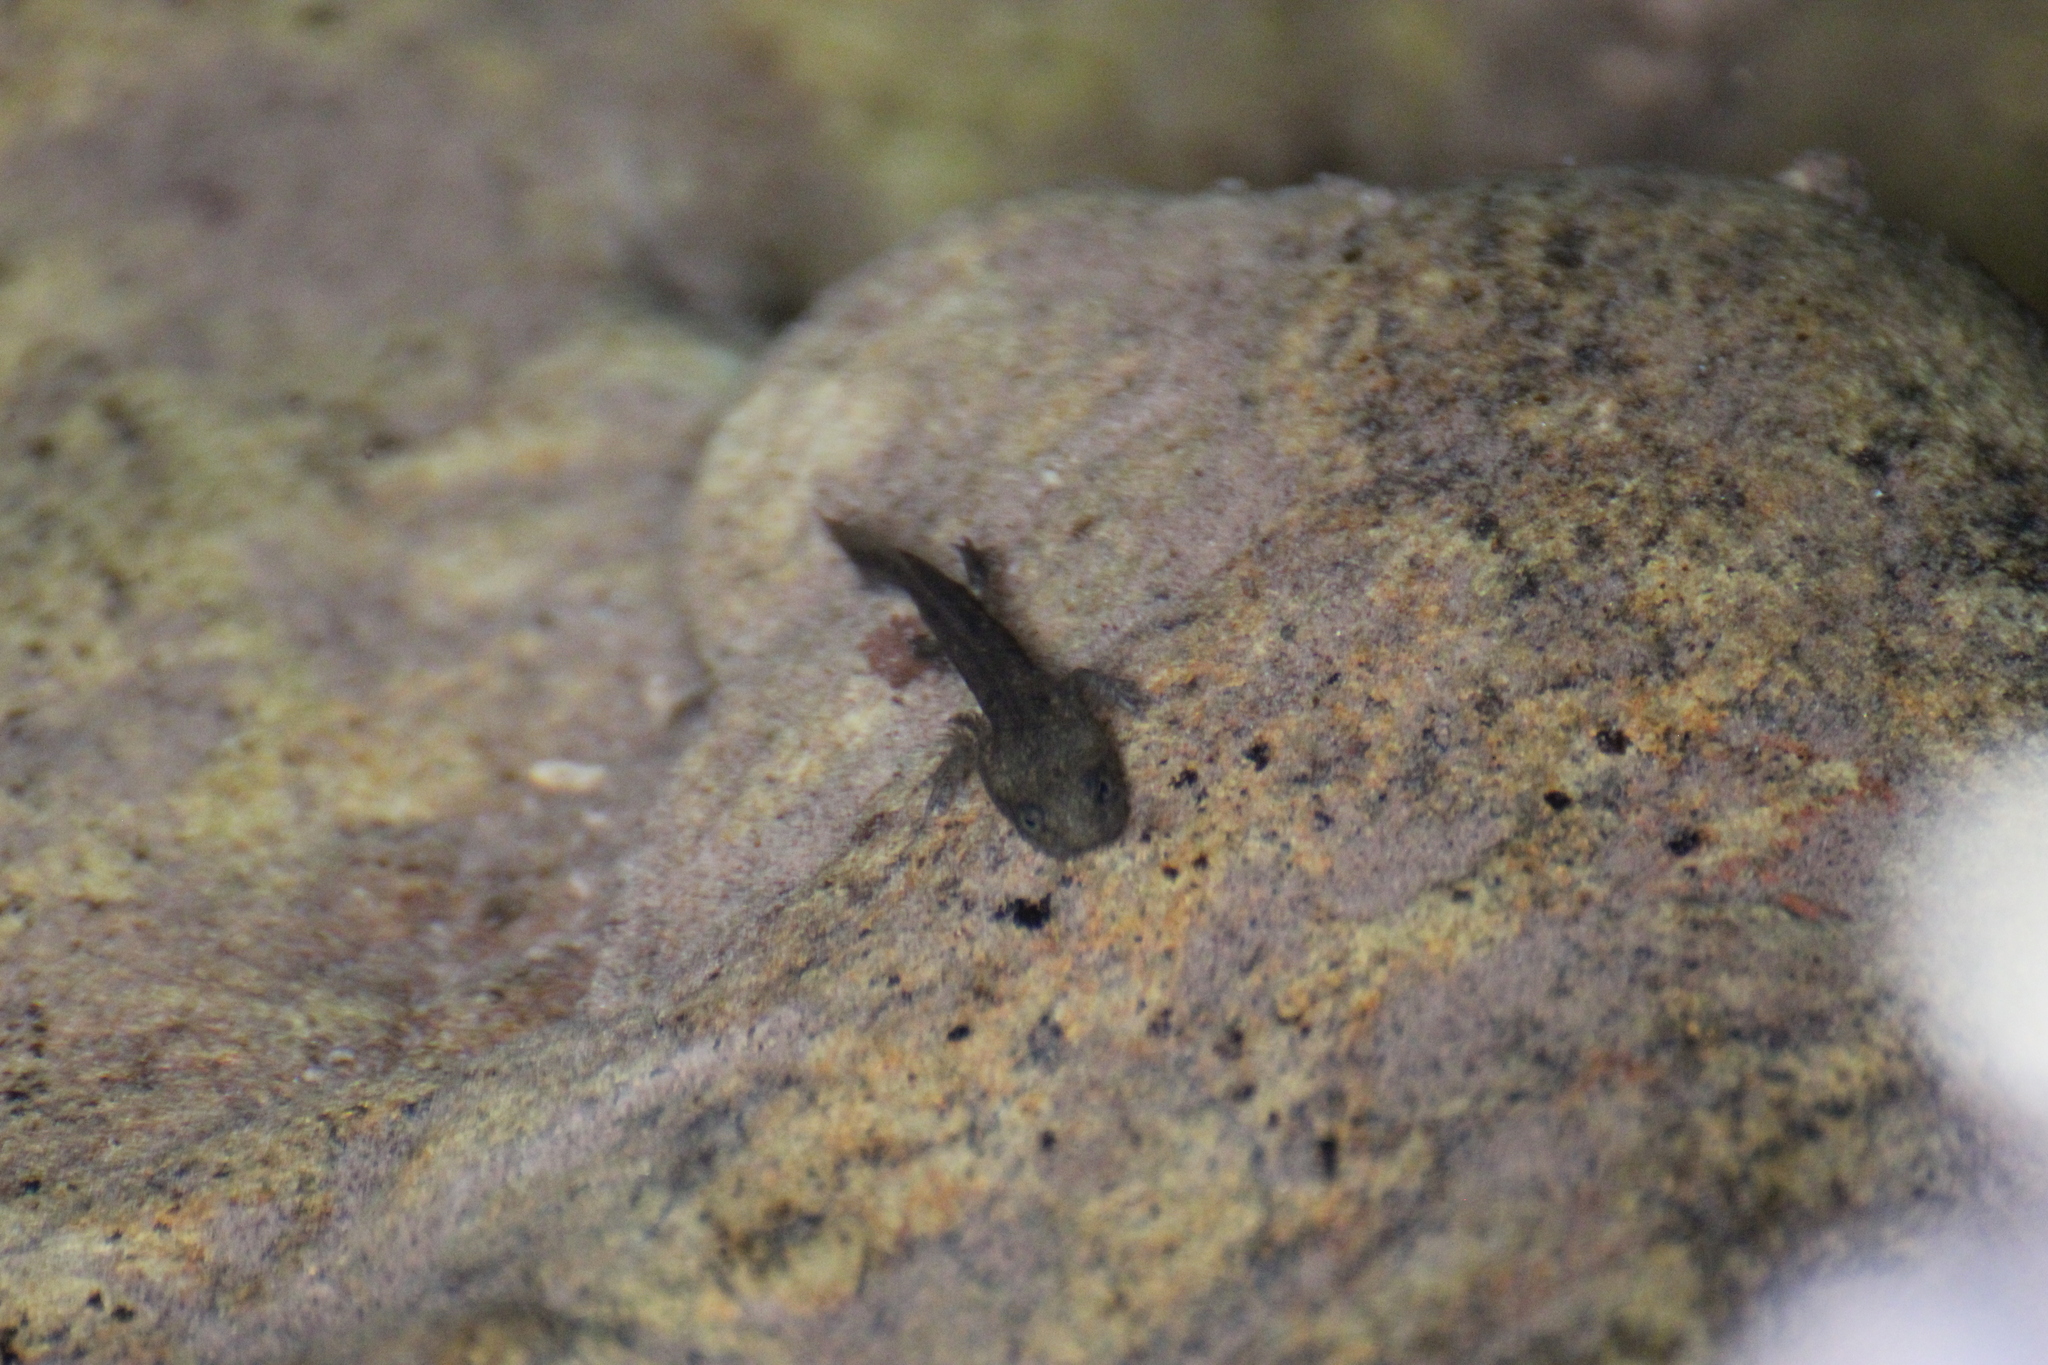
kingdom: Animalia
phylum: Chordata
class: Amphibia
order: Caudata
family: Salamandridae
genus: Salamandra
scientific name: Salamandra salamandra
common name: Fire salamander
